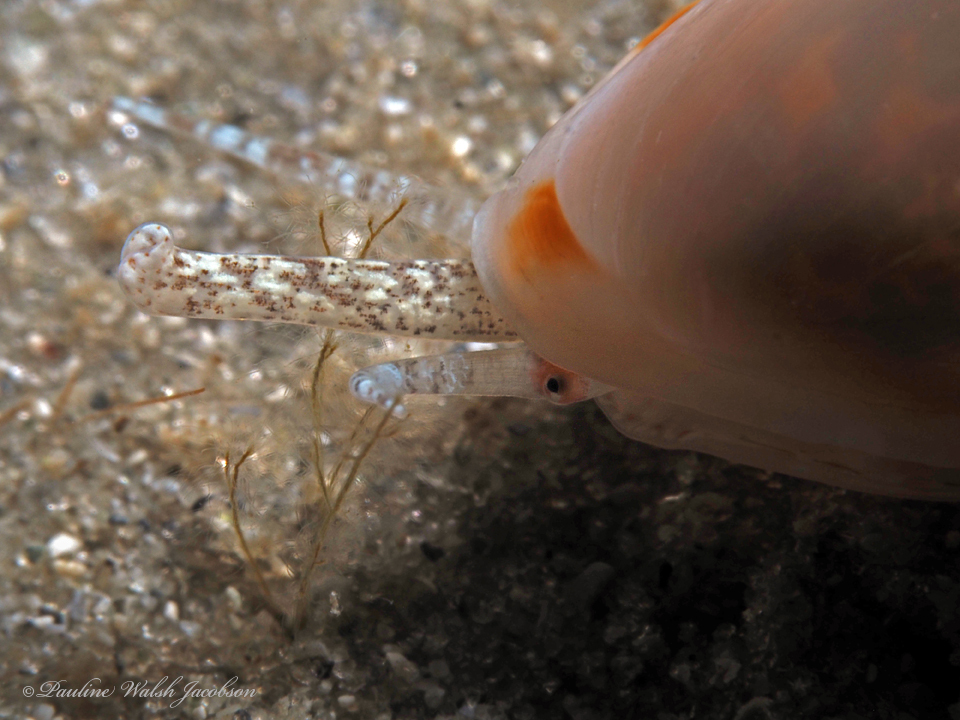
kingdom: Animalia
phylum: Mollusca
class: Gastropoda
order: Neogastropoda
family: Marginellidae
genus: Prunum
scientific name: Prunum apicinum
